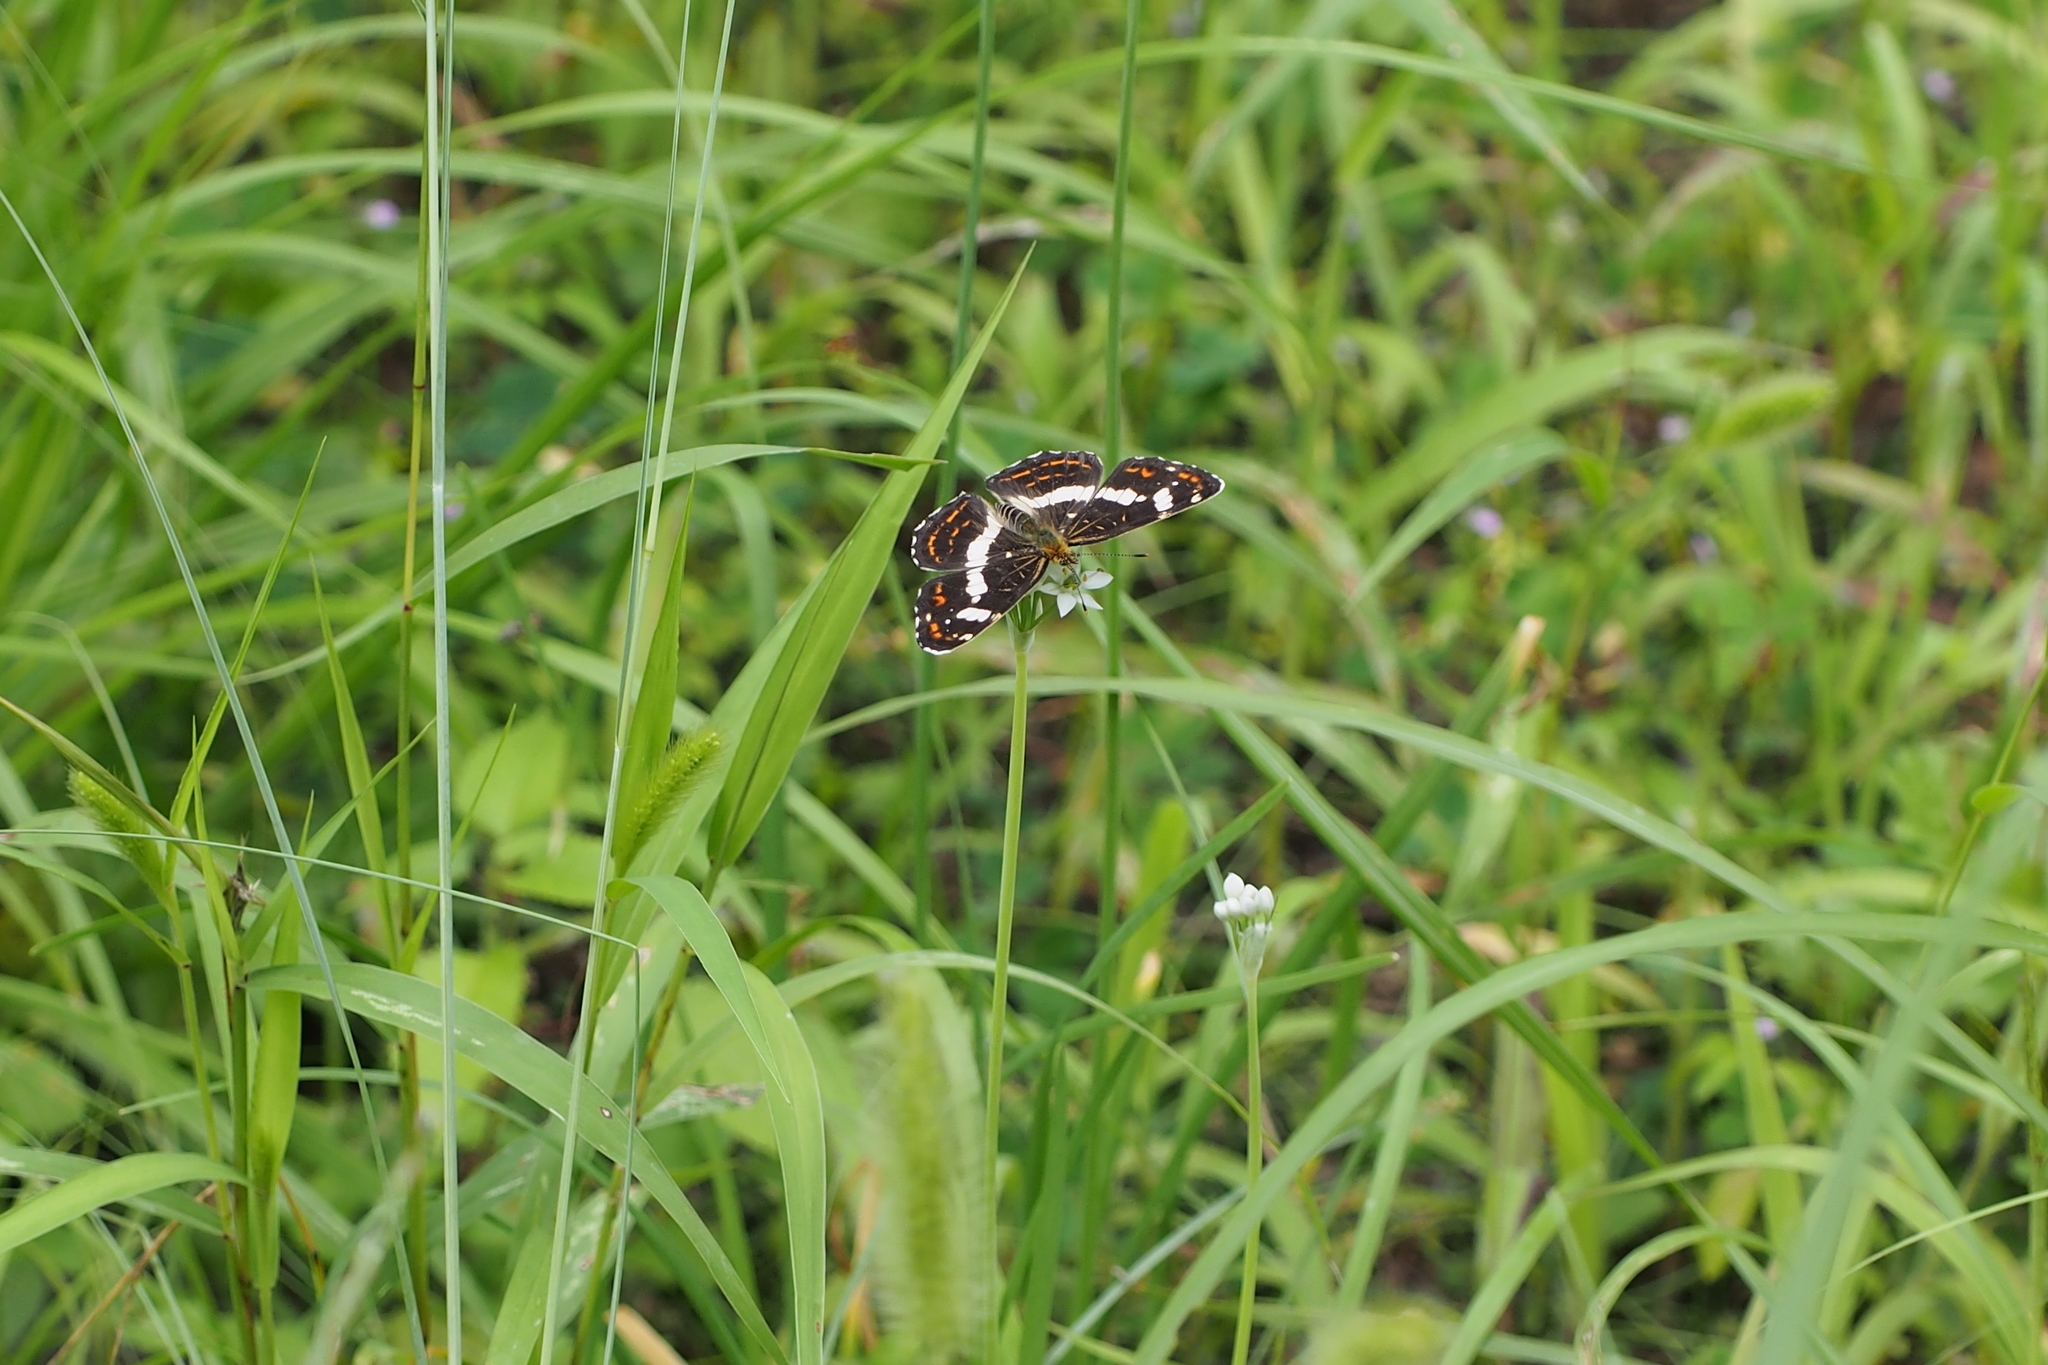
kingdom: Animalia
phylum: Arthropoda
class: Insecta
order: Lepidoptera
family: Nymphalidae
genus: Araschnia
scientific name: Araschnia burejana
